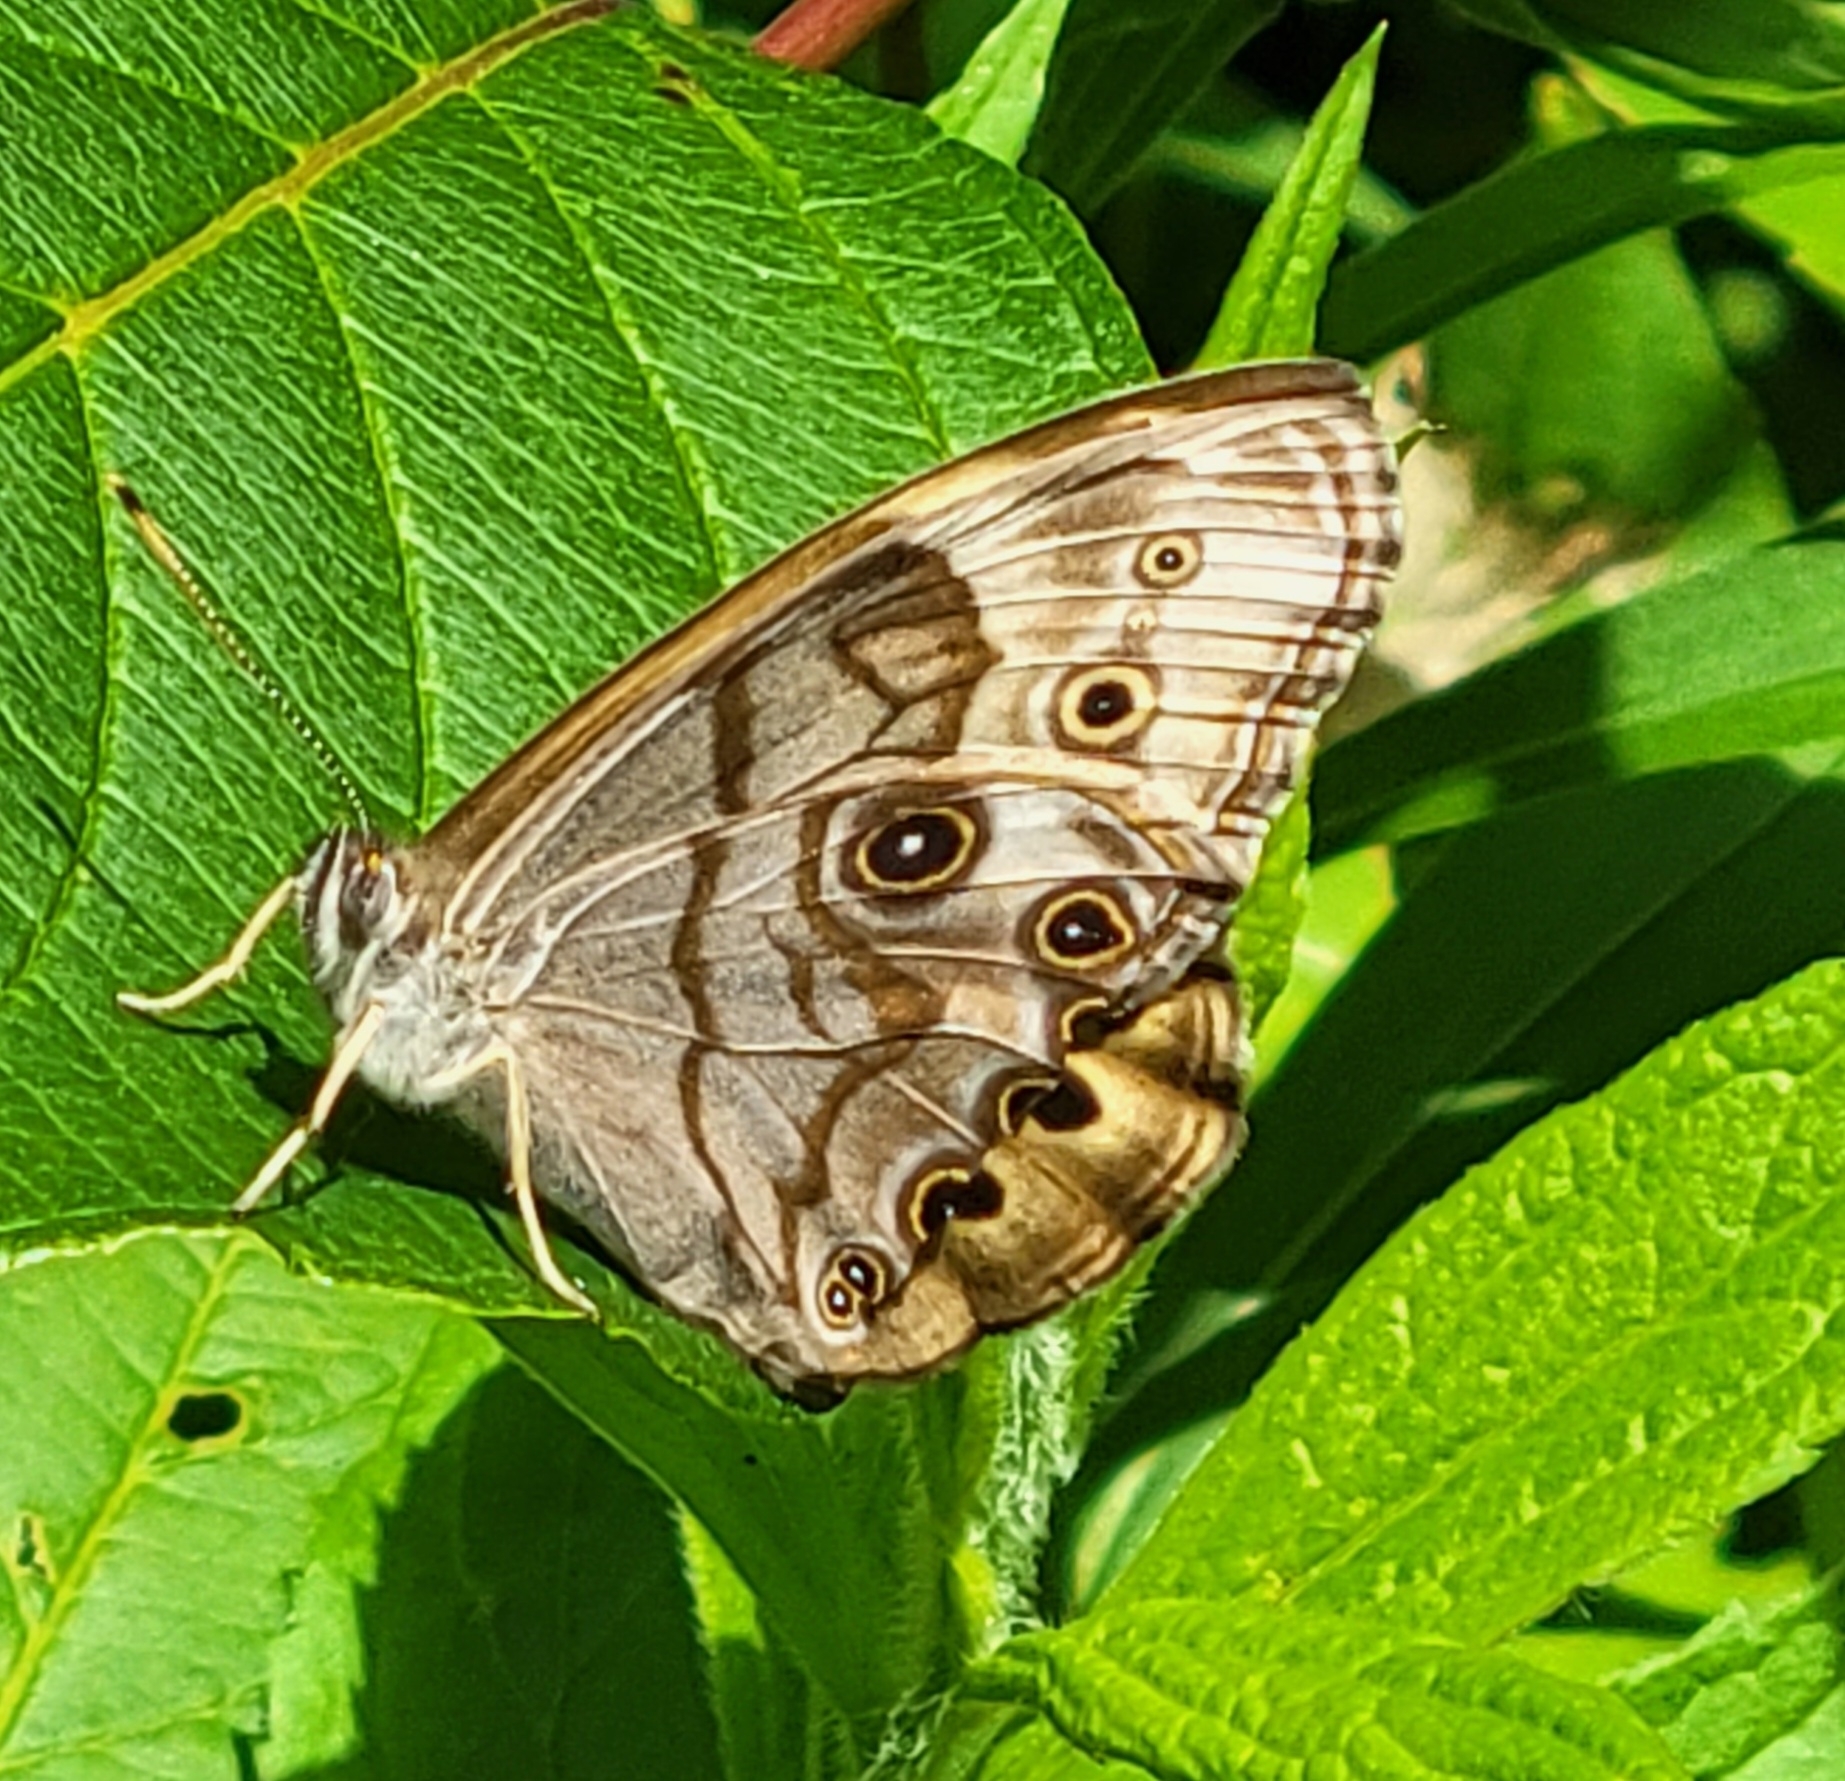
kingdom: Animalia
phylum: Arthropoda
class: Insecta
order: Lepidoptera
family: Nymphalidae
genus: Lethe
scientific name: Lethe anthedon
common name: Northern pearly-eye
